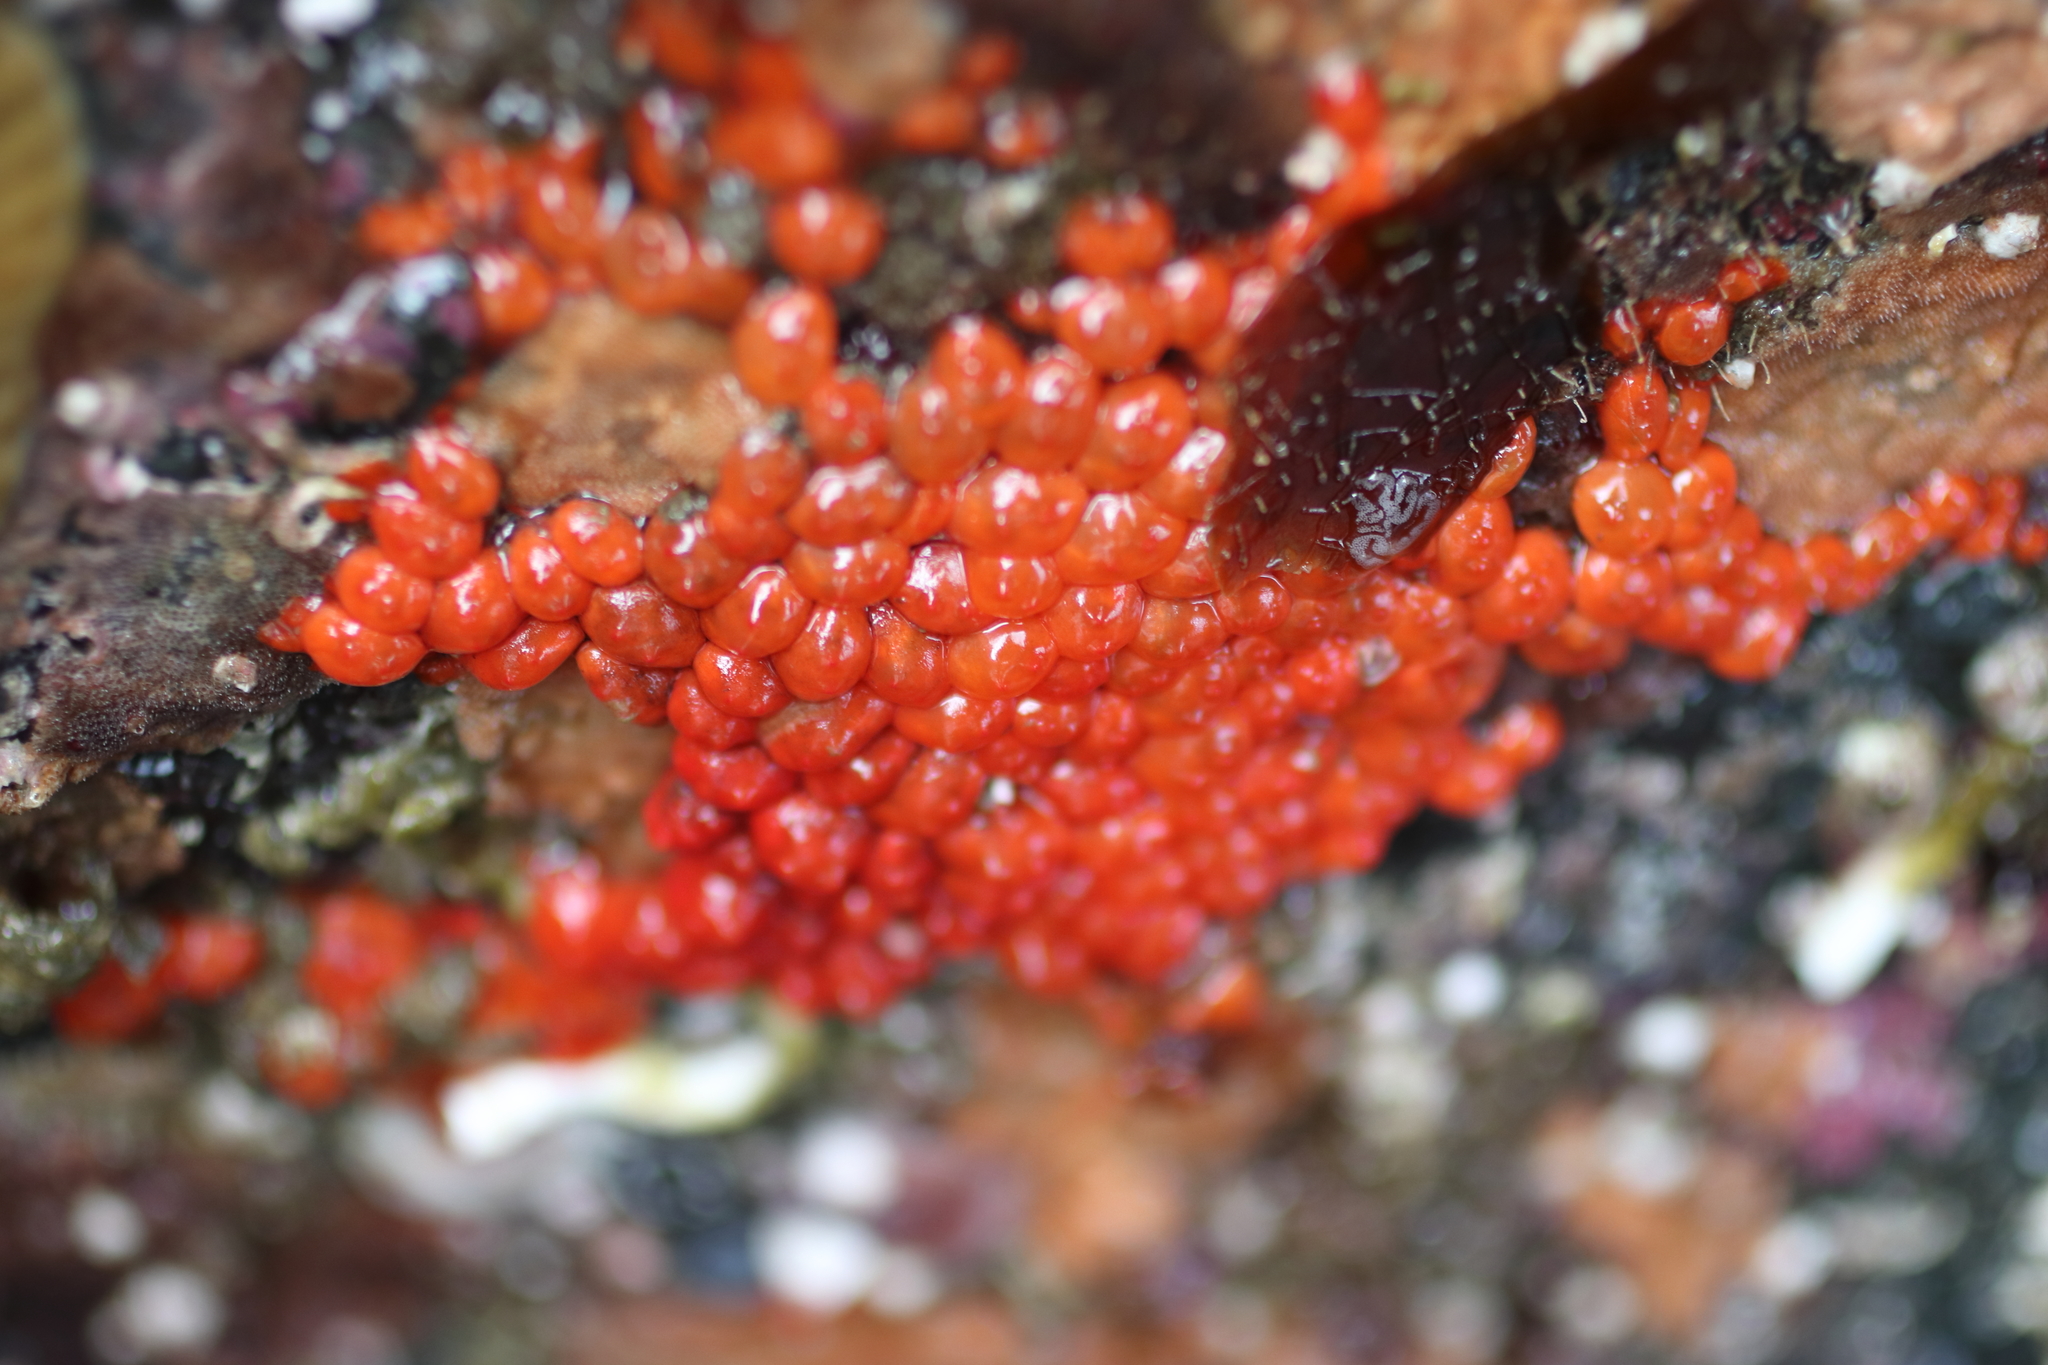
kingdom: Animalia
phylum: Chordata
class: Ascidiacea
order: Stolidobranchia
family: Styelidae
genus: Metandrocarpa
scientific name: Metandrocarpa taylori
